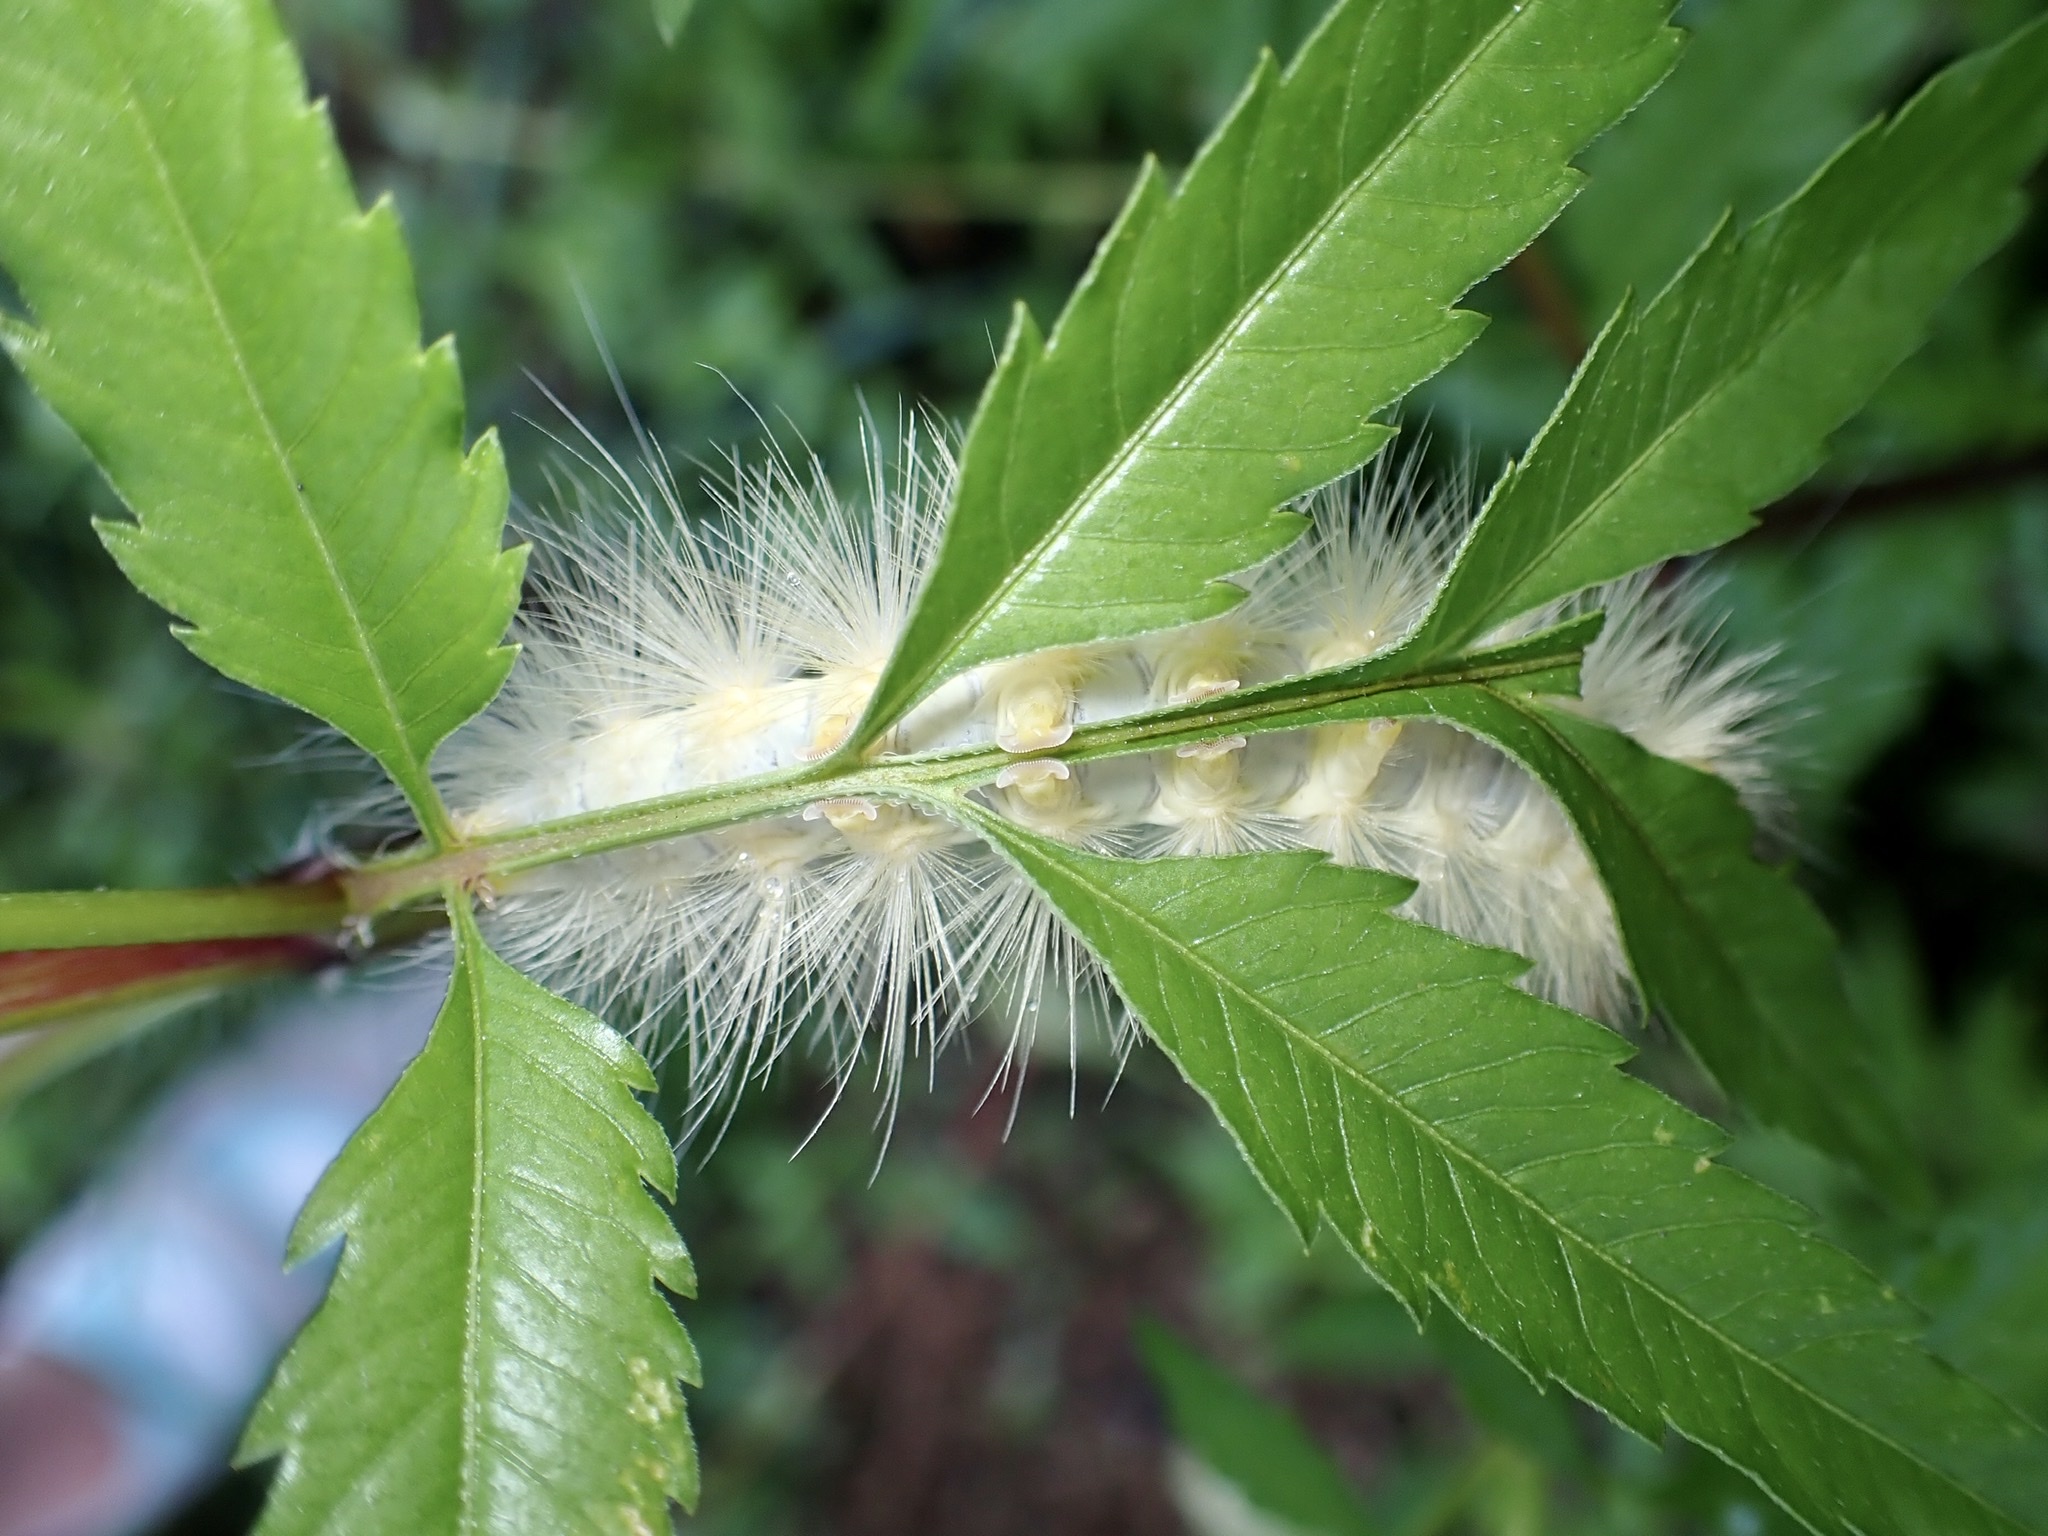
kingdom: Animalia
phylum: Arthropoda
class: Insecta
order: Lepidoptera
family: Erebidae
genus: Spilosoma
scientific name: Spilosoma virginica
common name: Virginia tiger moth
